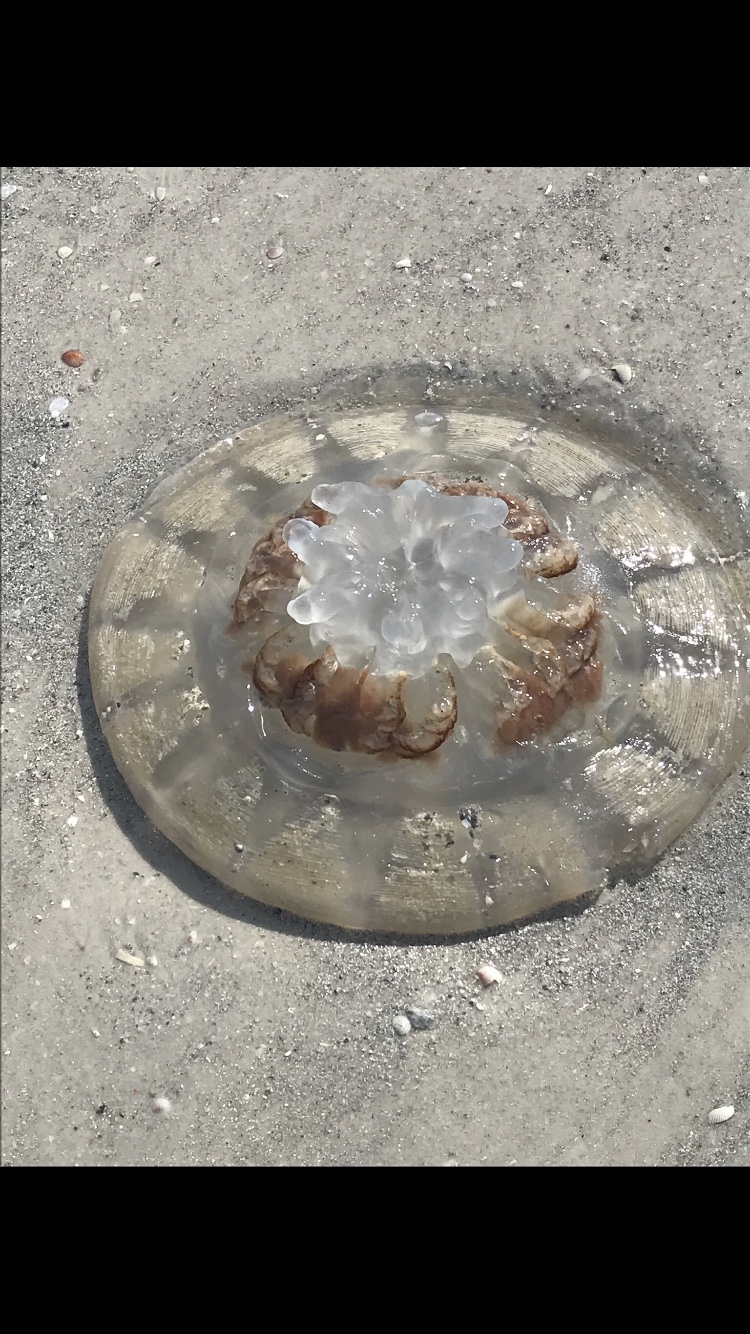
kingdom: Animalia
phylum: Cnidaria
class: Scyphozoa
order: Semaeostomeae
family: Pelagiidae
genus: Chrysaora
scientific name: Chrysaora quinquecirrha
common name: Atlantic sea nettle
